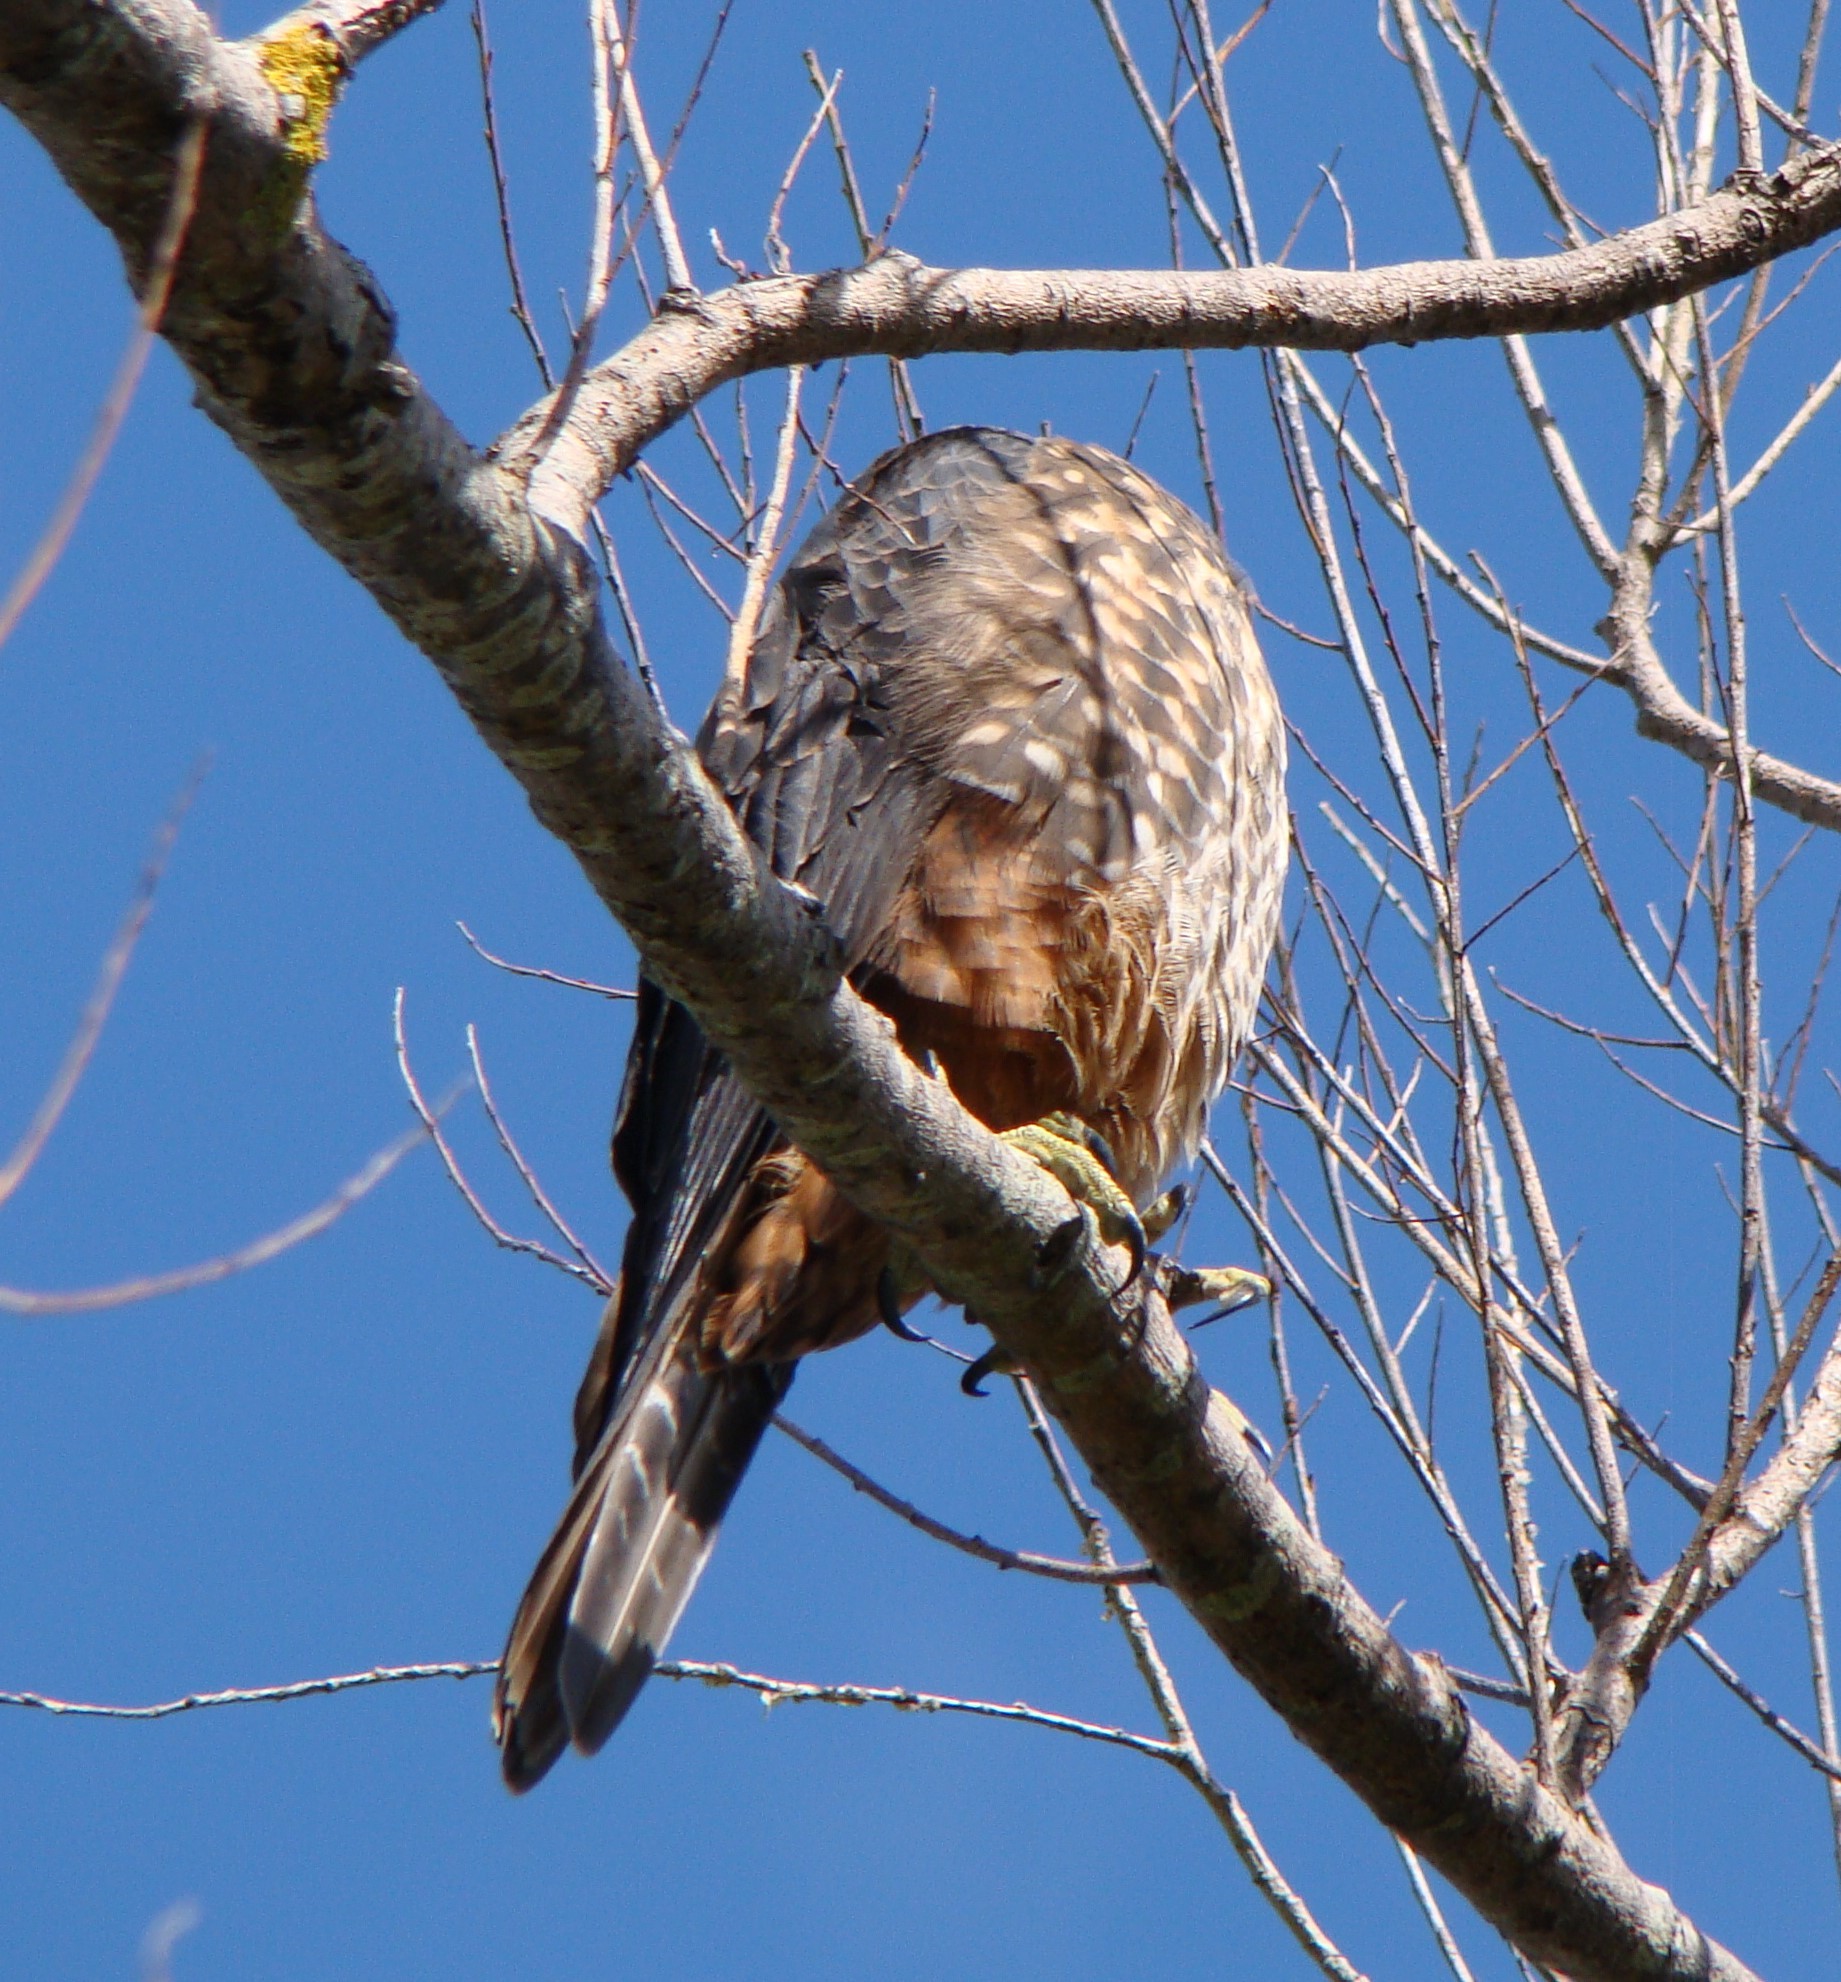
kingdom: Animalia
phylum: Chordata
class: Aves
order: Falconiformes
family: Falconidae
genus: Falco
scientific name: Falco novaeseelandiae
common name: New zealand falcon
